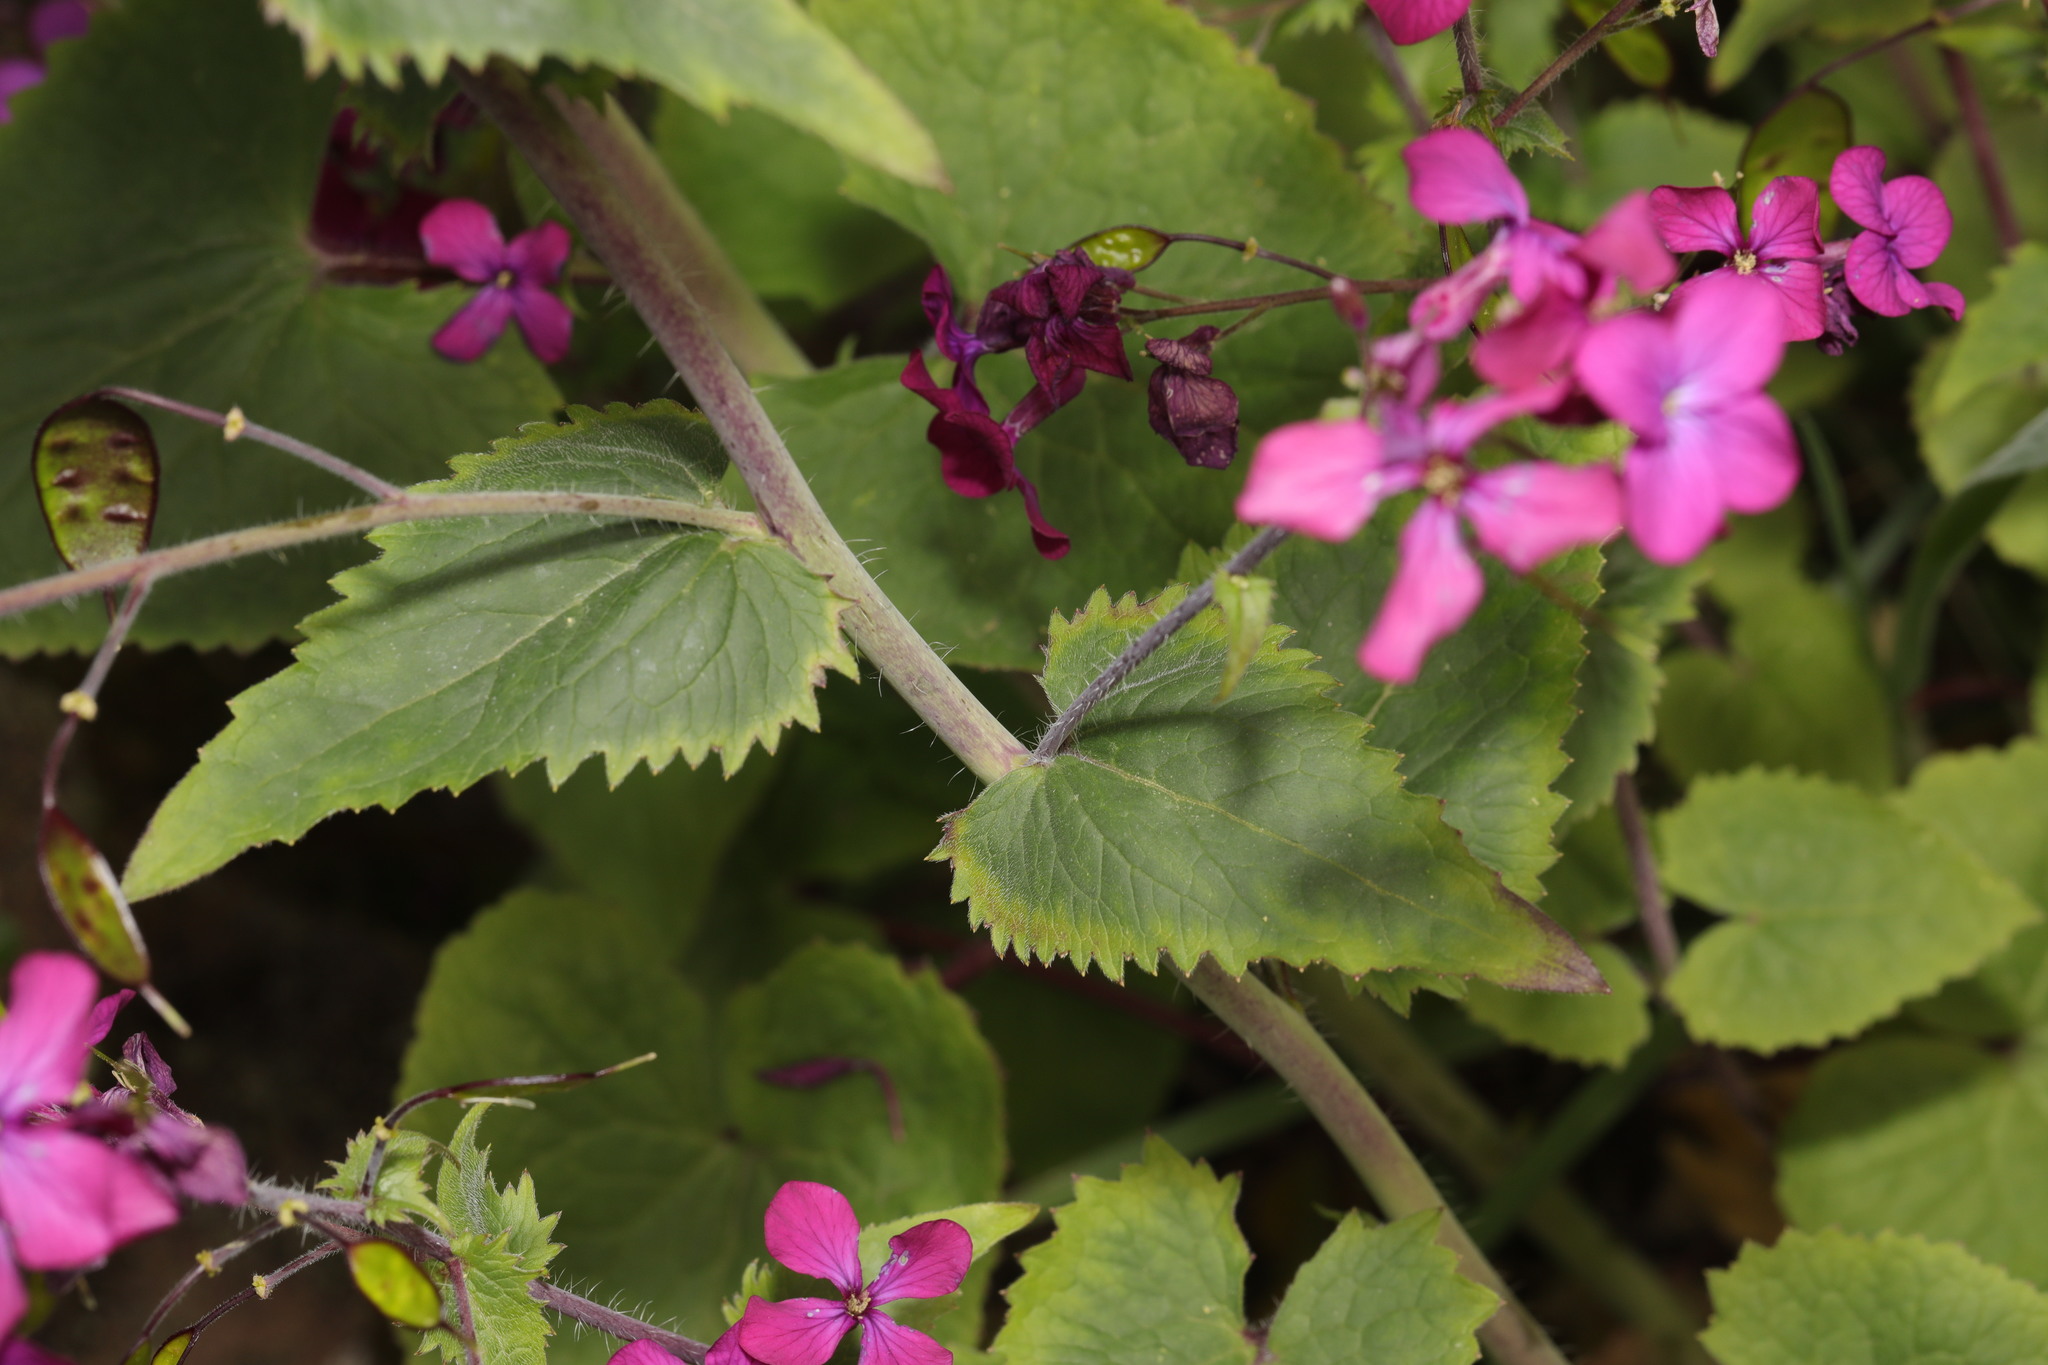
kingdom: Plantae
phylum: Tracheophyta
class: Magnoliopsida
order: Brassicales
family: Brassicaceae
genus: Lunaria
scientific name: Lunaria annua
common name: Honesty
